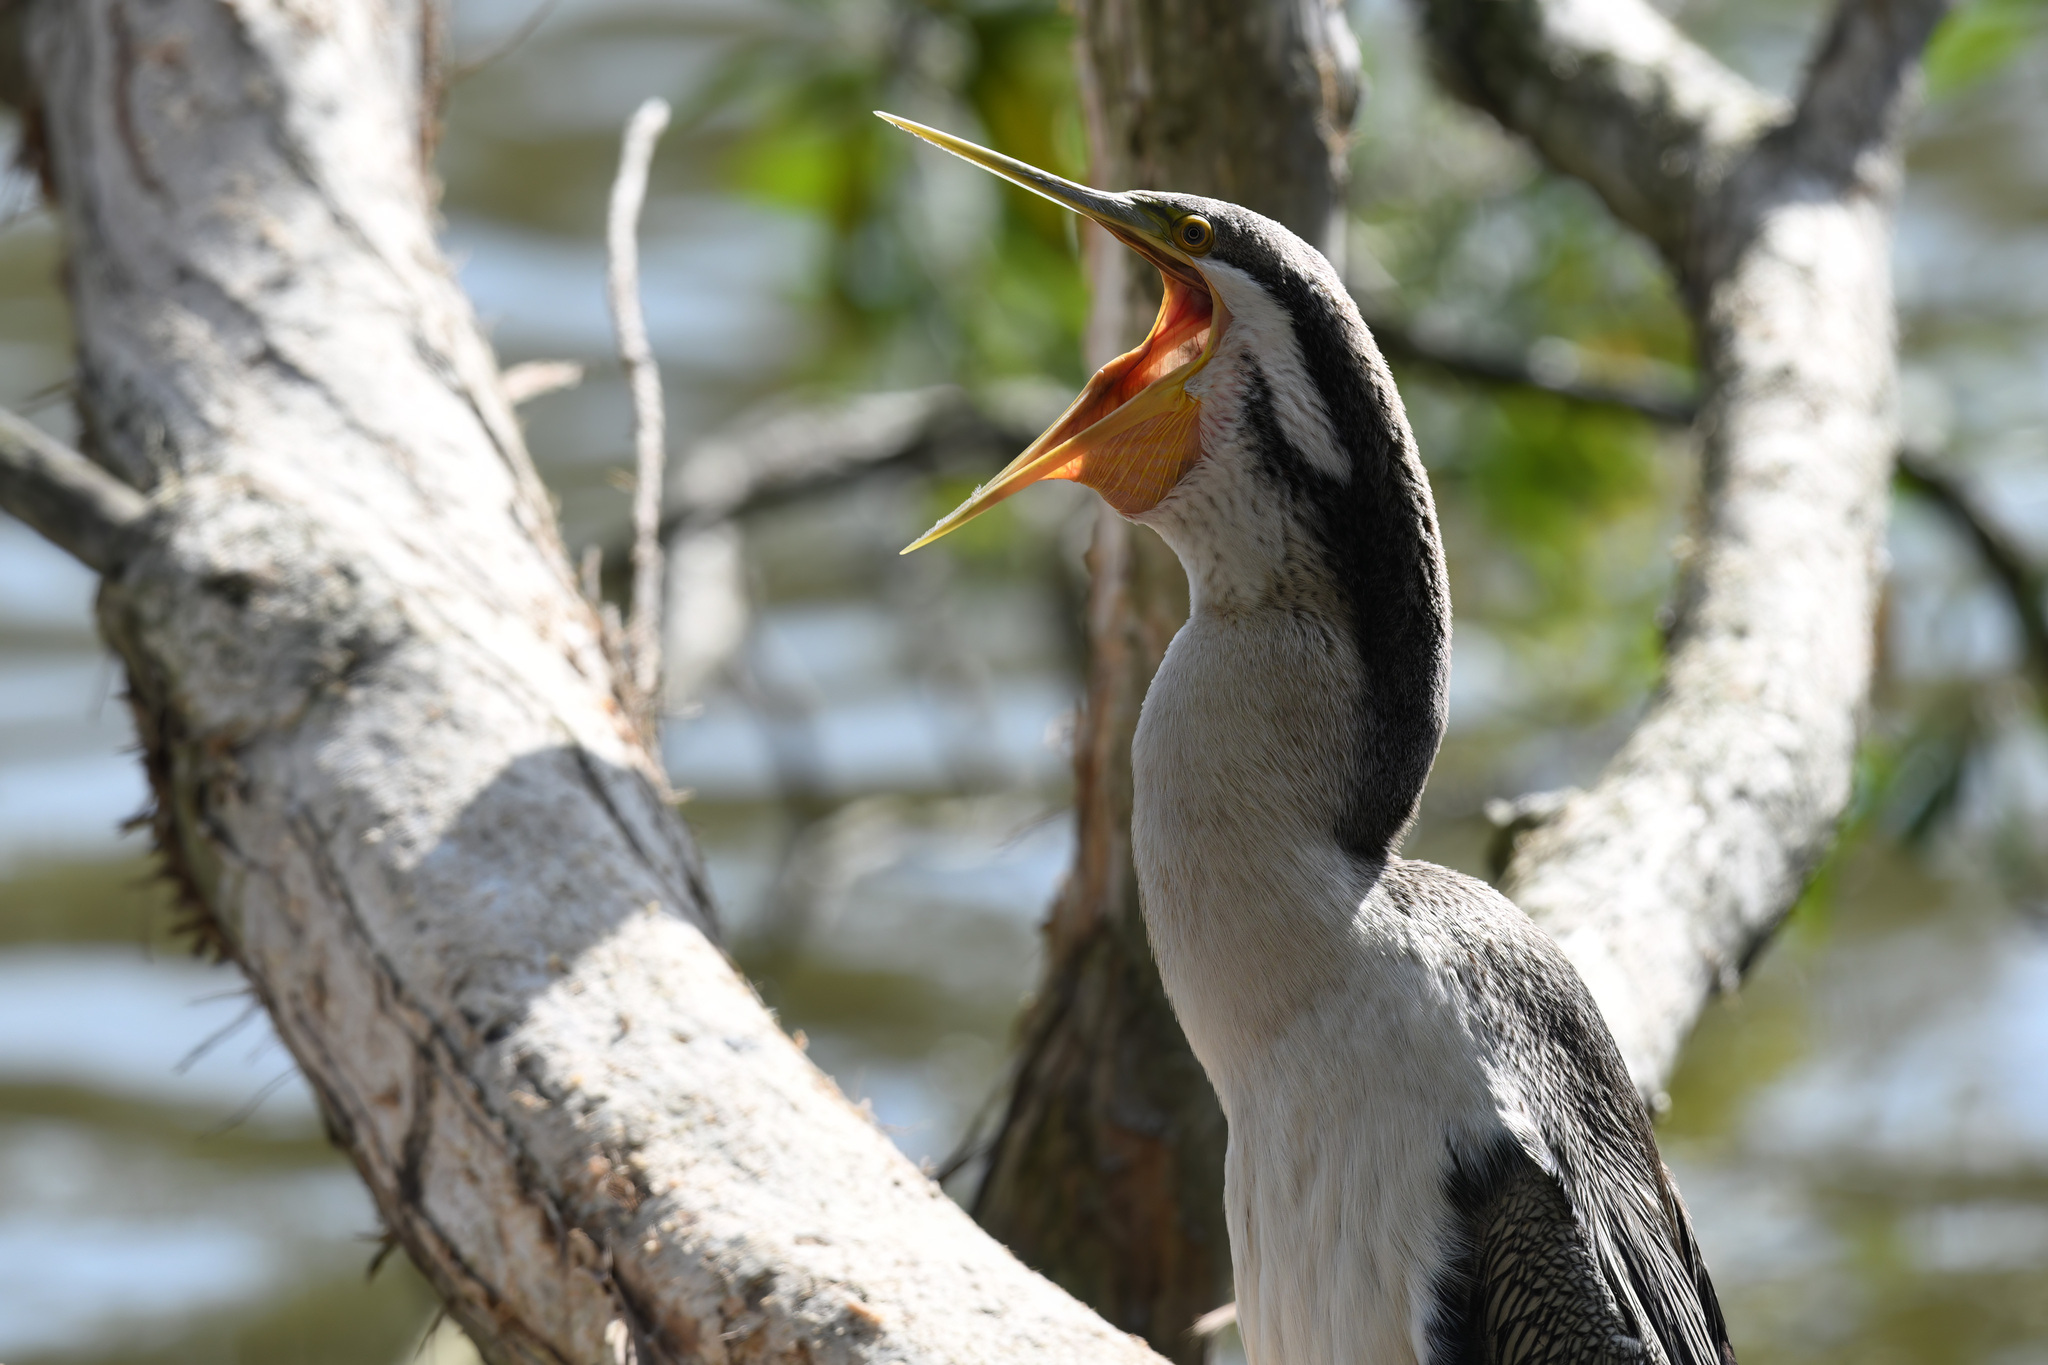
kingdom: Animalia
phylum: Chordata
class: Aves
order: Suliformes
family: Anhingidae
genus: Anhinga
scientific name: Anhinga novaehollandiae
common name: Australasian darter
